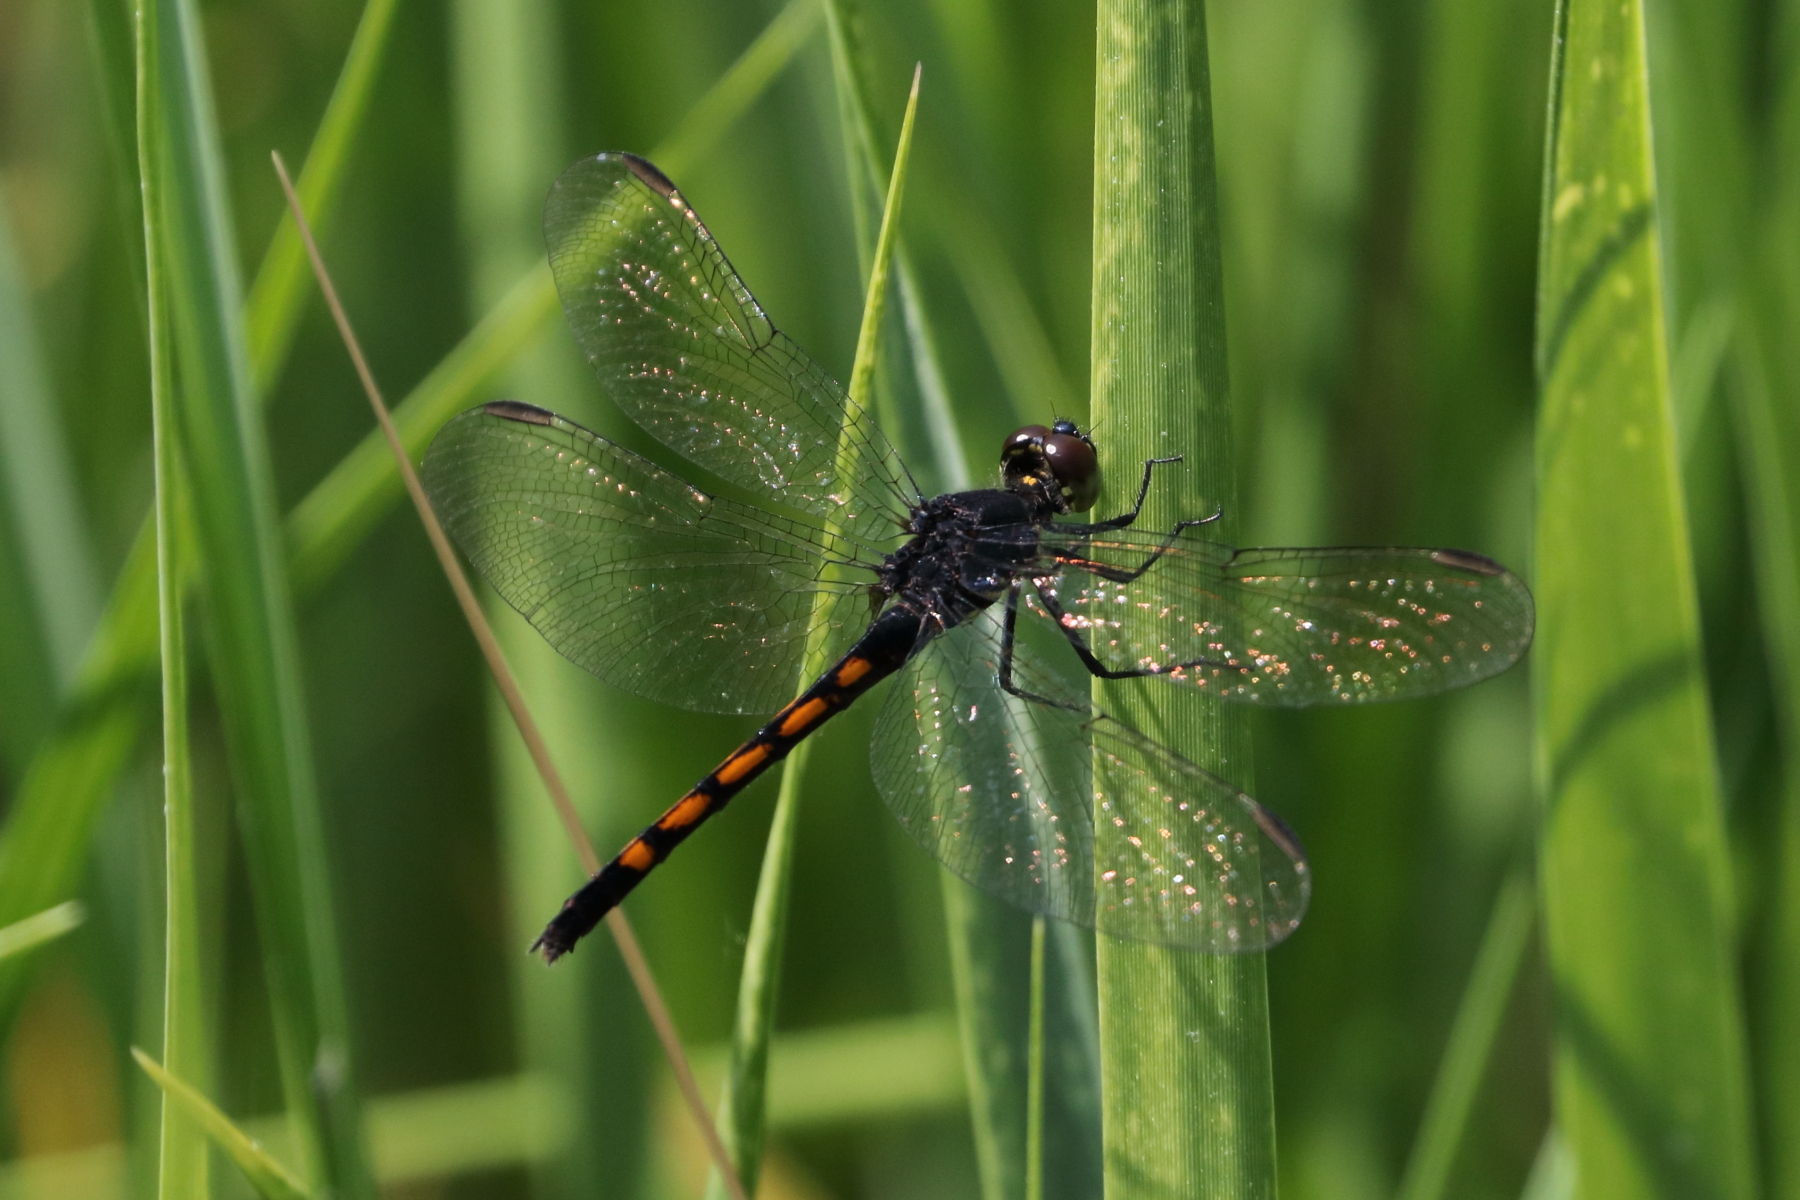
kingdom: Animalia
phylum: Arthropoda
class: Insecta
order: Odonata
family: Libellulidae
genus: Erythrodiplax
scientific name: Erythrodiplax berenice
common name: Seaside dragonlet
